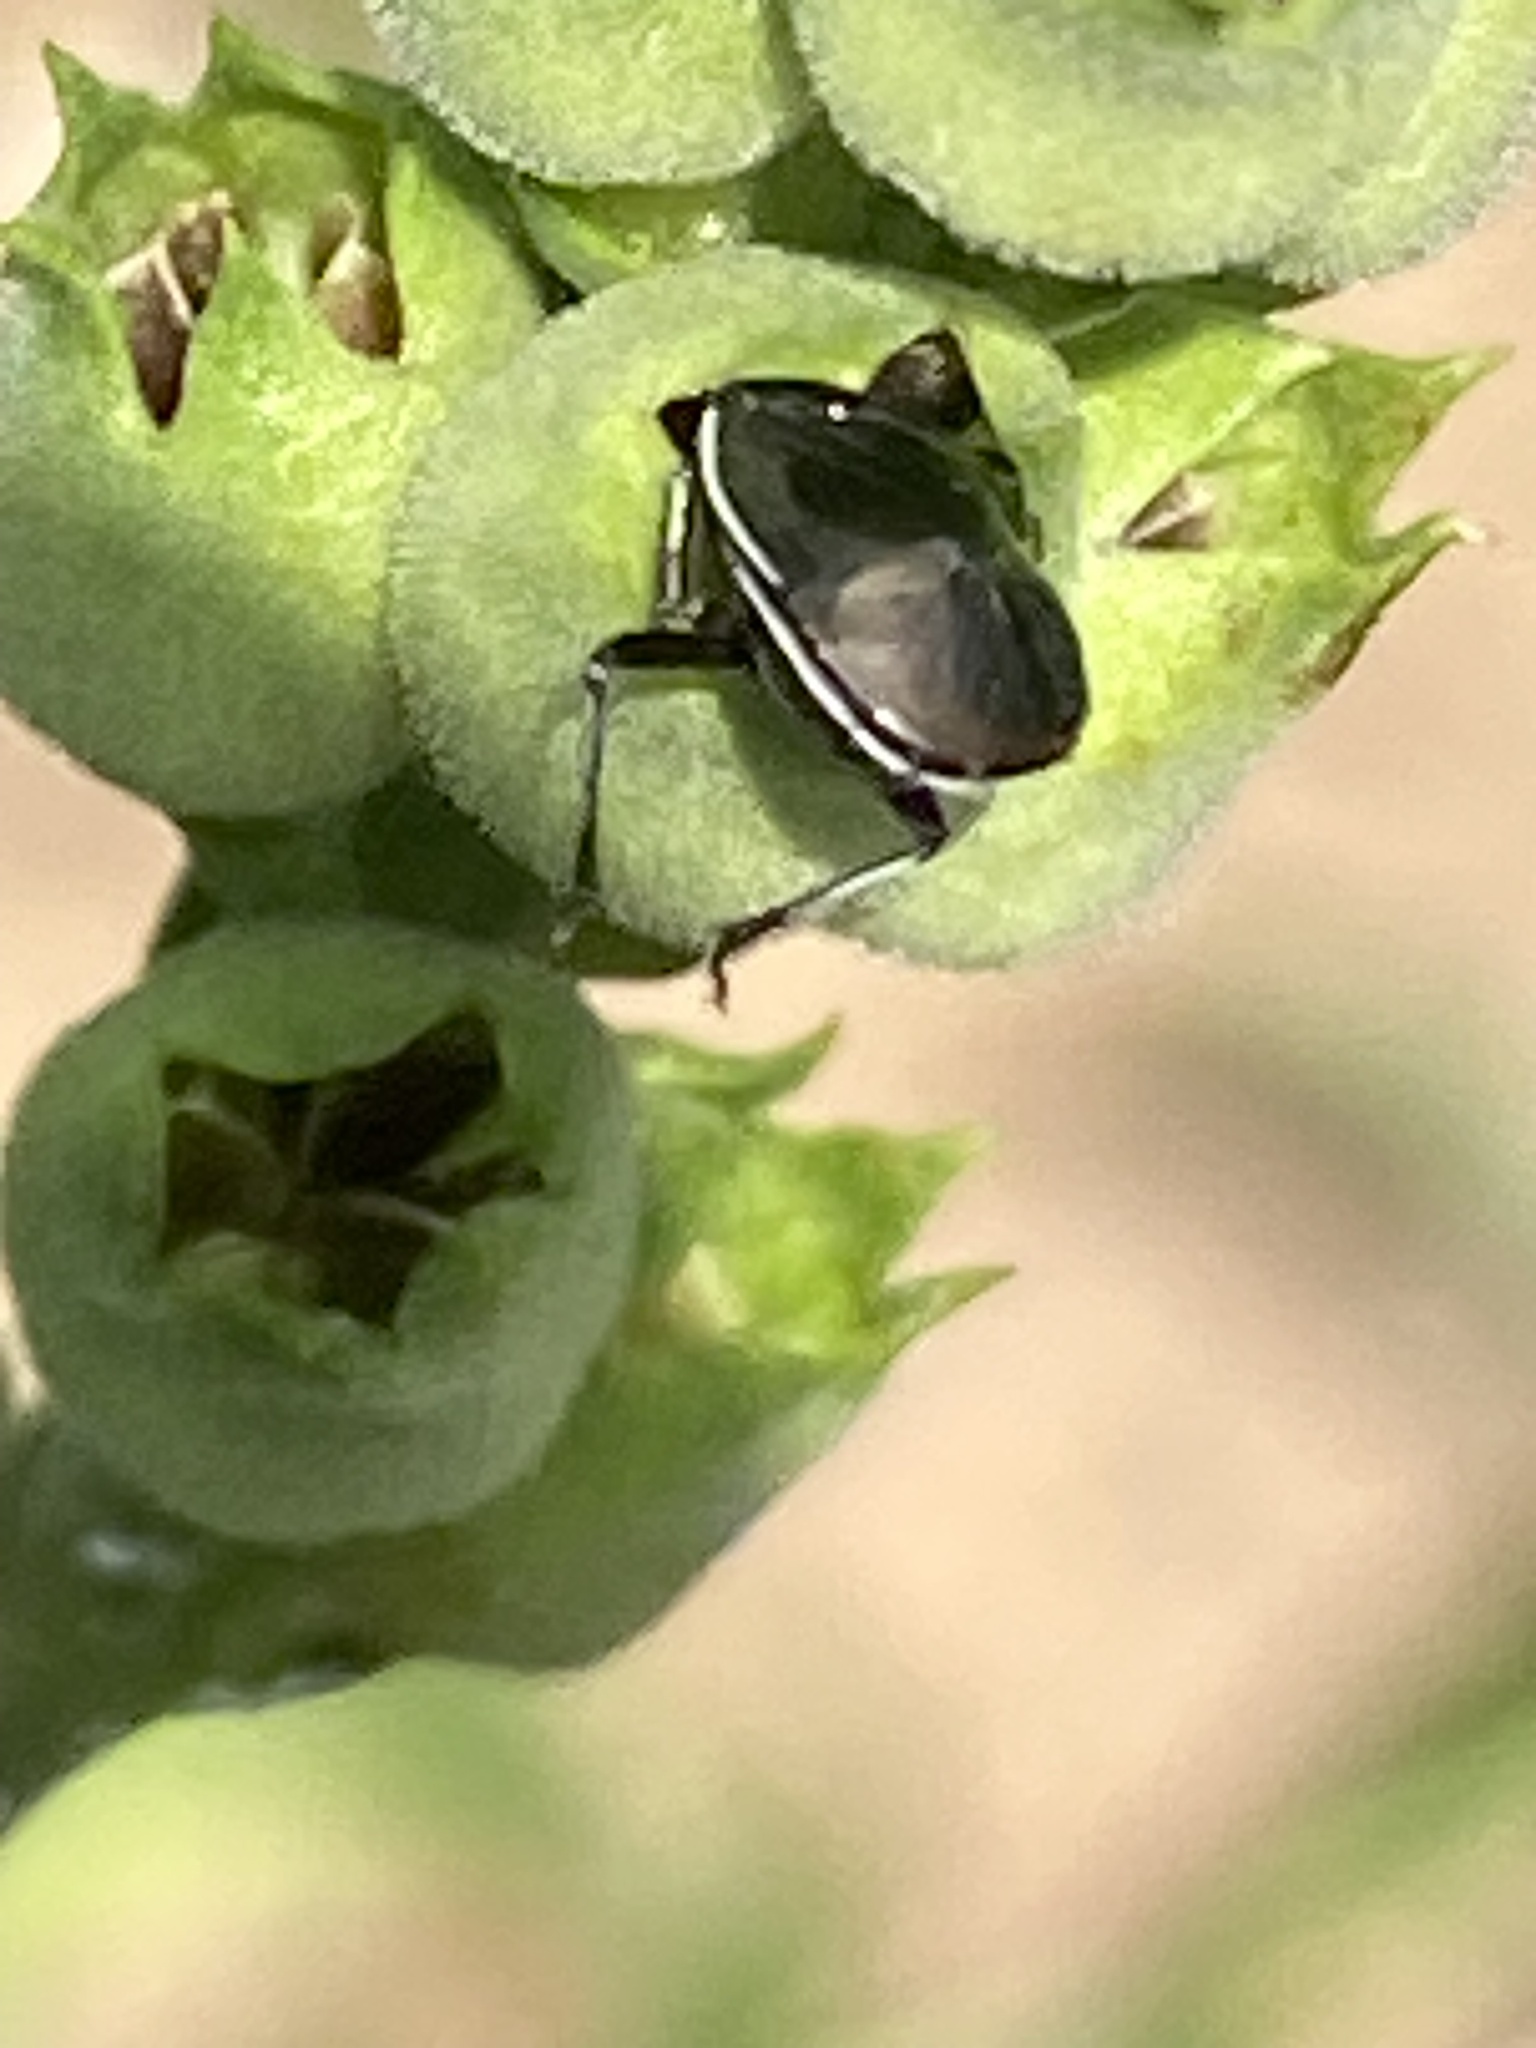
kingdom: Animalia
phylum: Arthropoda
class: Insecta
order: Hemiptera
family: Cydnidae
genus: Sehirus
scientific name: Sehirus cinctus
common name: White-margined burrower bug
